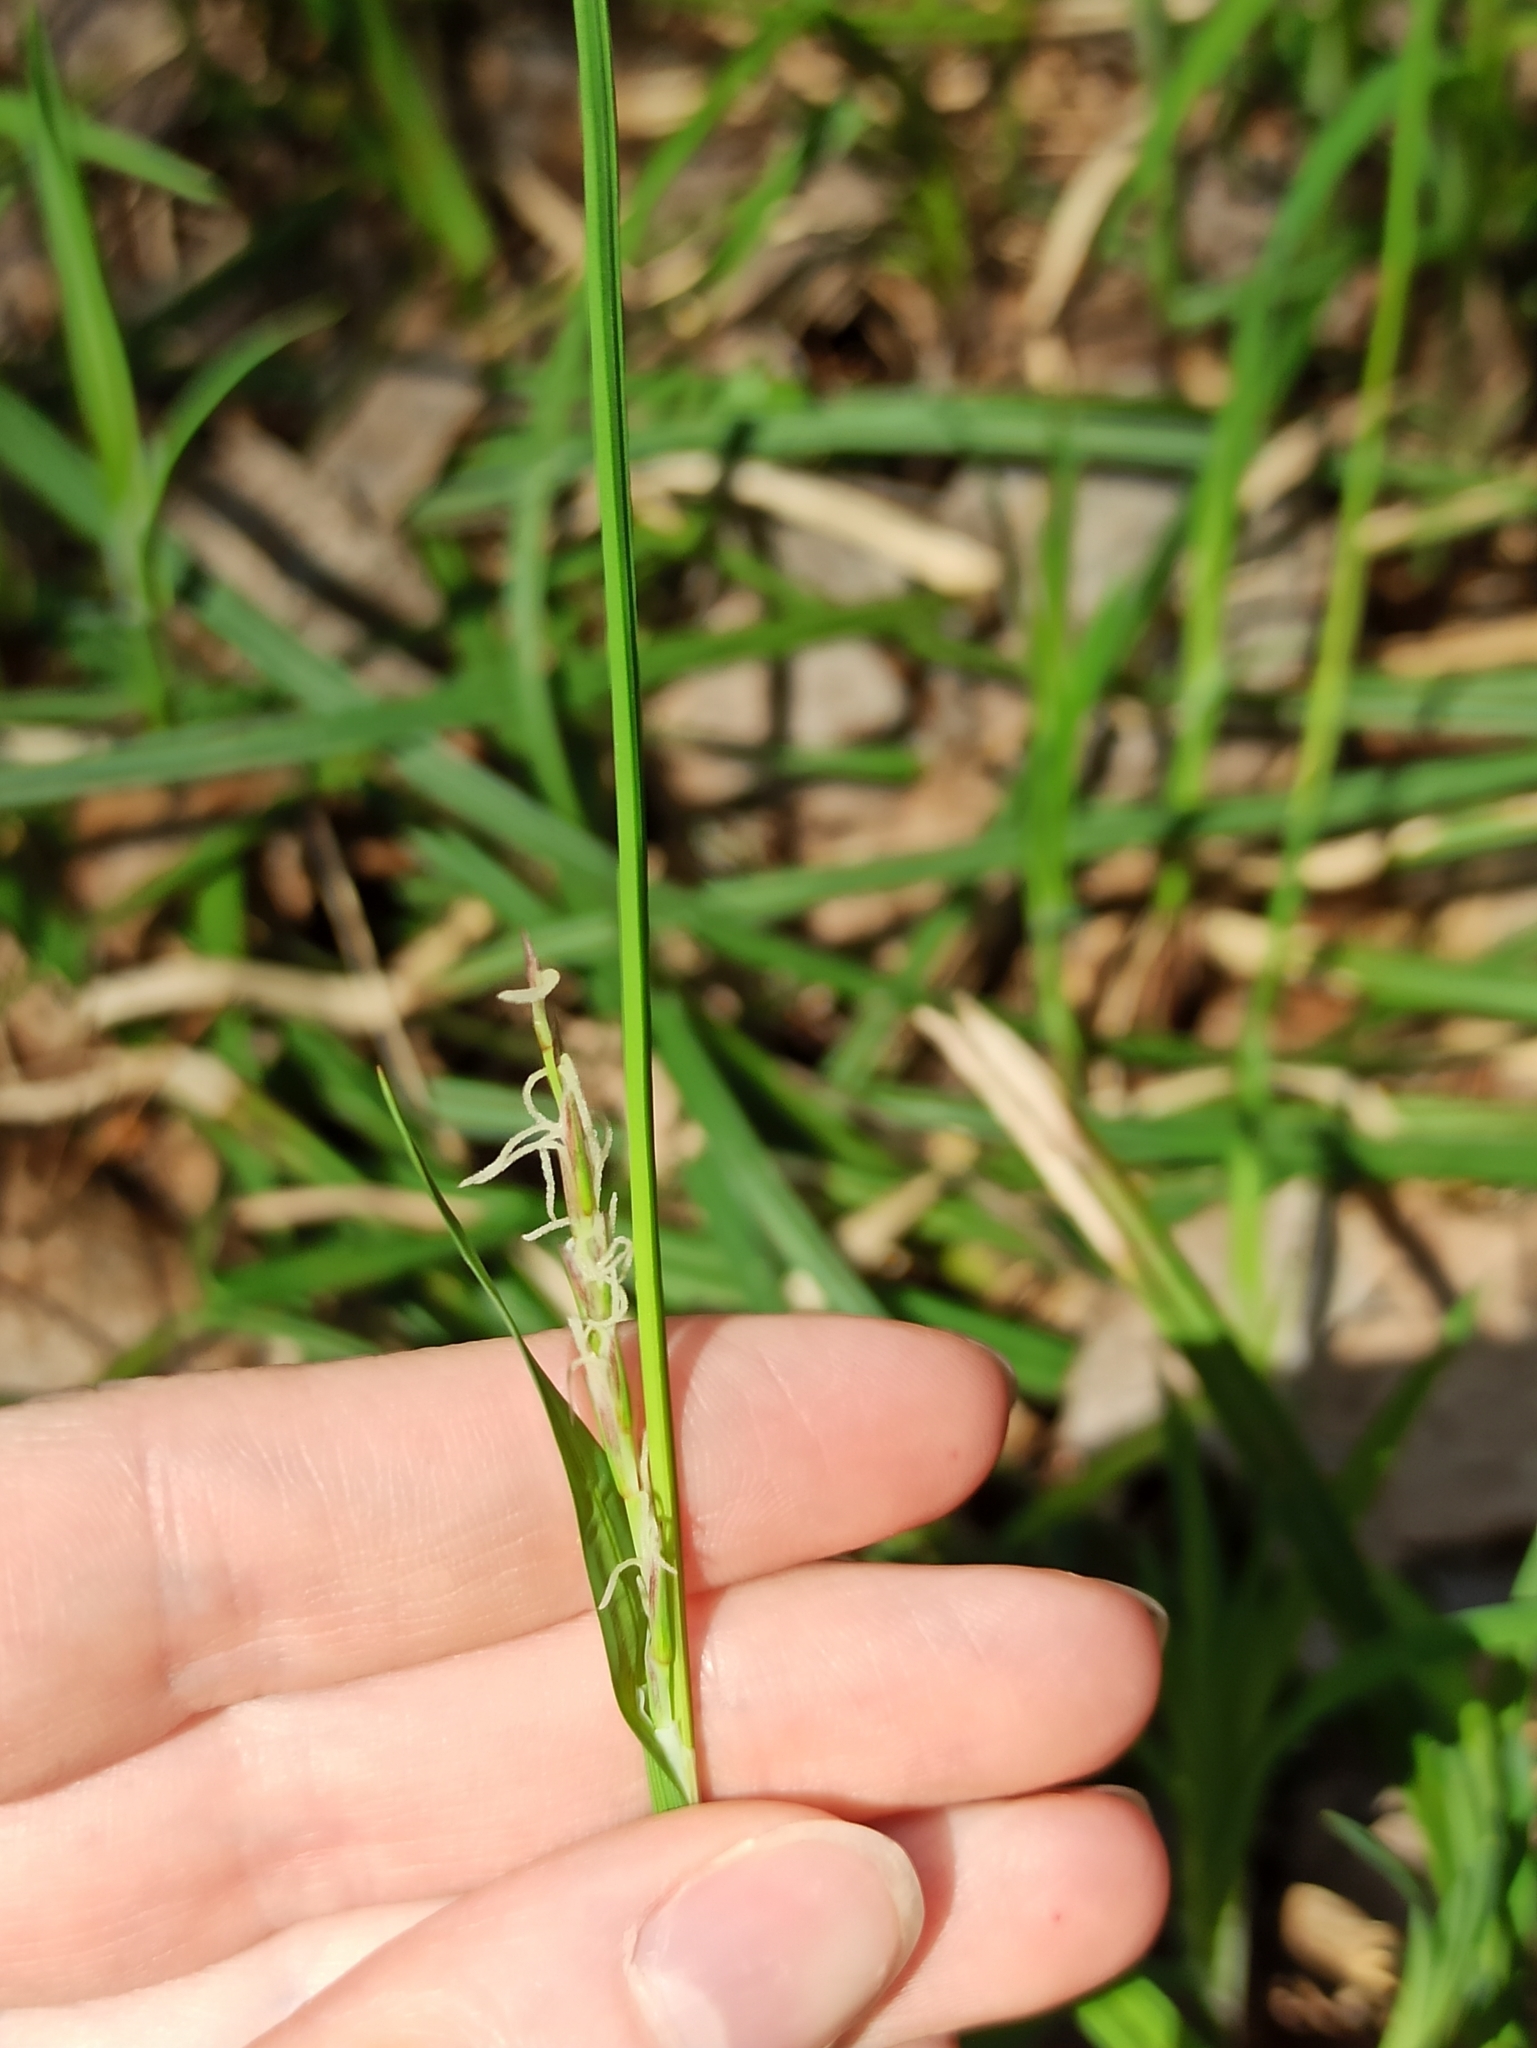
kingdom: Plantae
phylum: Tracheophyta
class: Liliopsida
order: Poales
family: Cyperaceae
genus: Carex
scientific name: Carex pilosa
